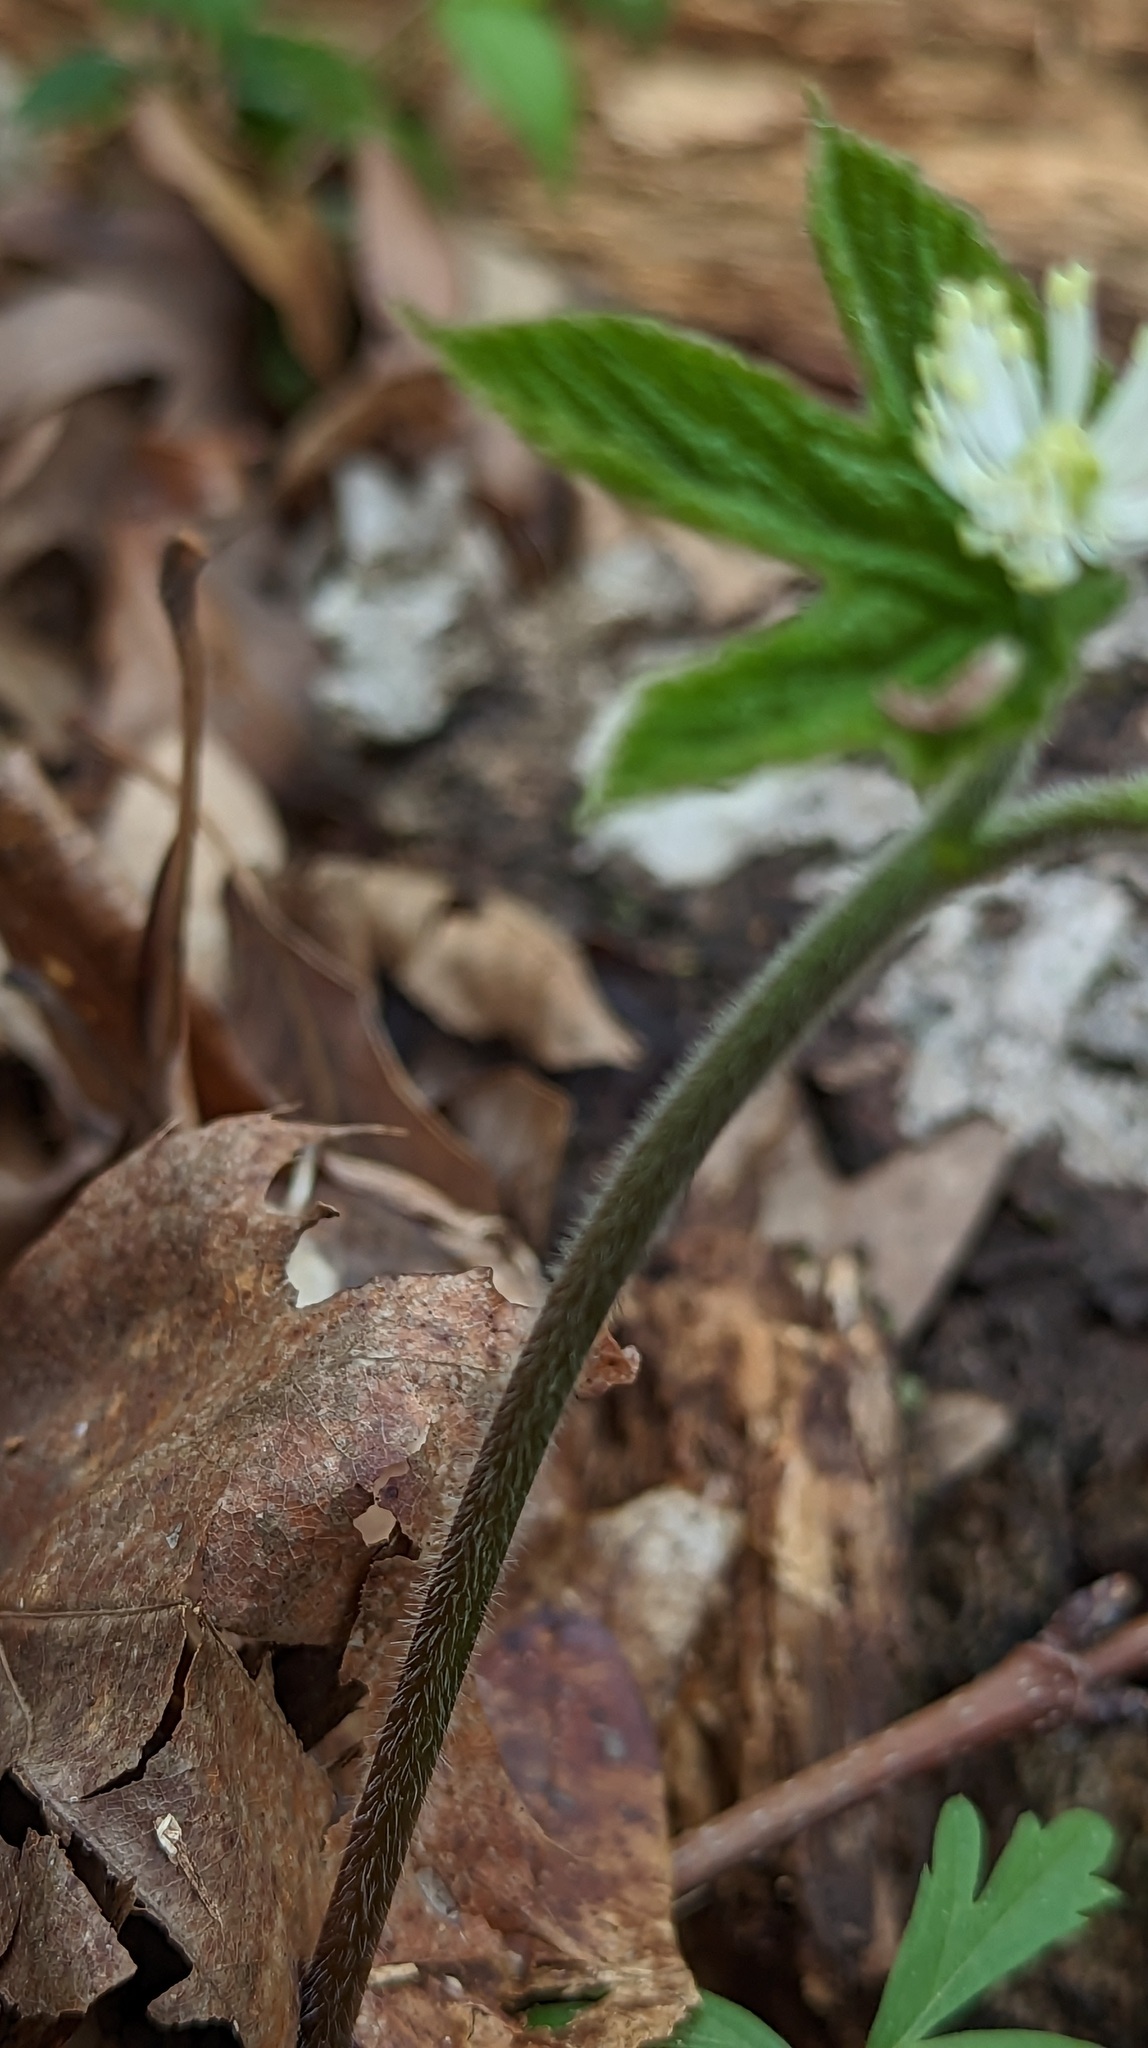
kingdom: Plantae
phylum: Tracheophyta
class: Magnoliopsida
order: Ranunculales
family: Ranunculaceae
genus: Hydrastis
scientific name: Hydrastis canadensis
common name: Goldenseal
